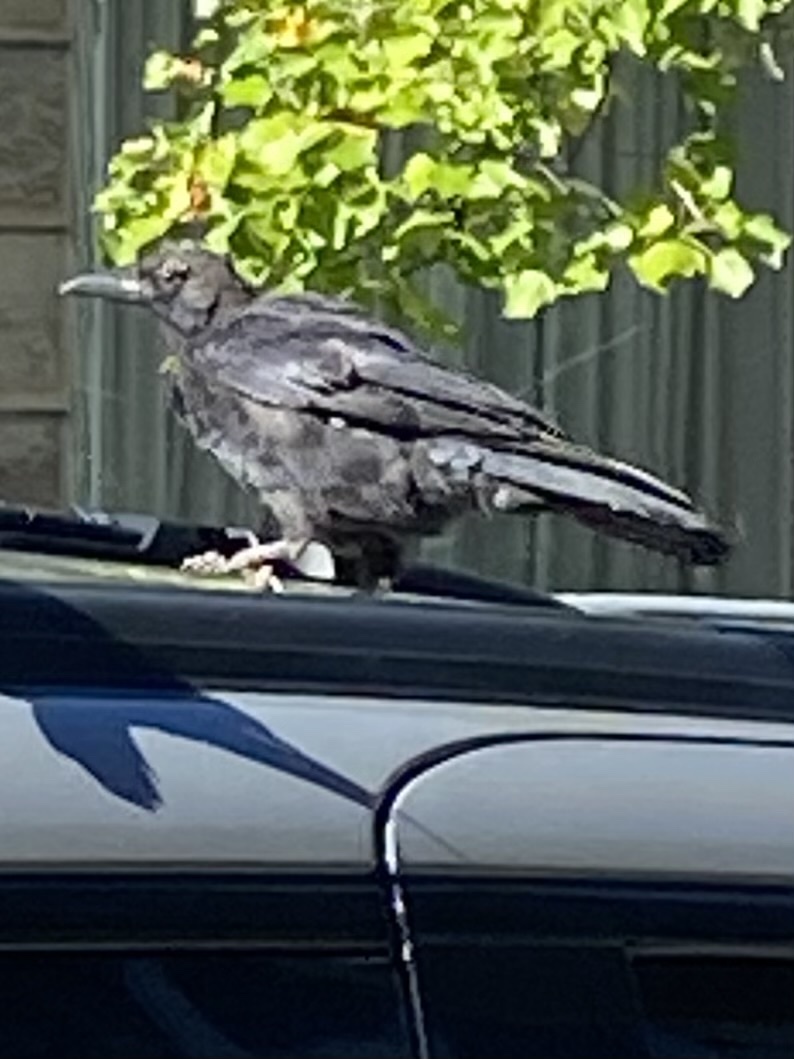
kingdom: Animalia
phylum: Chordata
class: Aves
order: Passeriformes
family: Corvidae
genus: Corvus
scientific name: Corvus brachyrhynchos
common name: American crow
